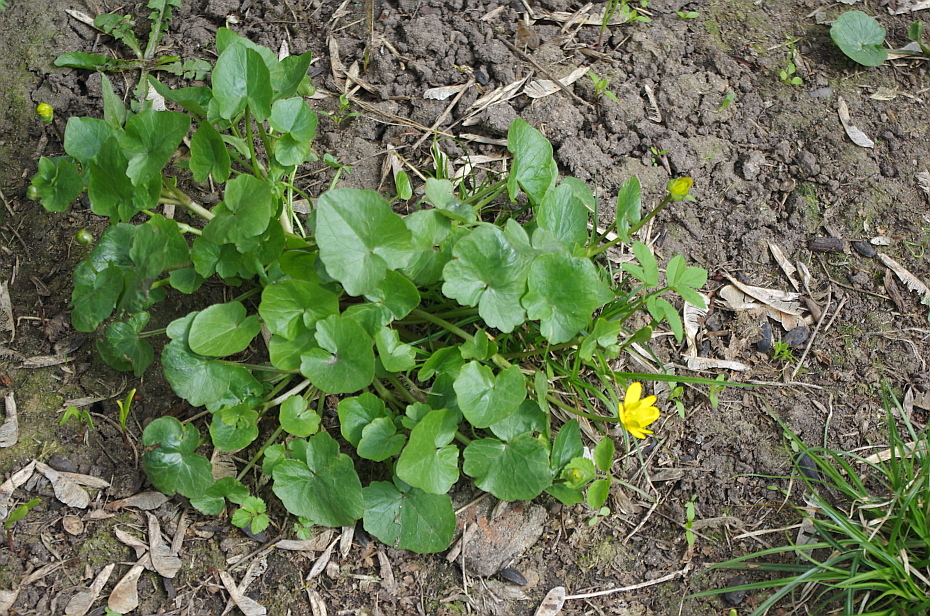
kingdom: Plantae
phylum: Tracheophyta
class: Magnoliopsida
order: Ranunculales
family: Ranunculaceae
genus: Ficaria
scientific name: Ficaria verna
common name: Lesser celandine
